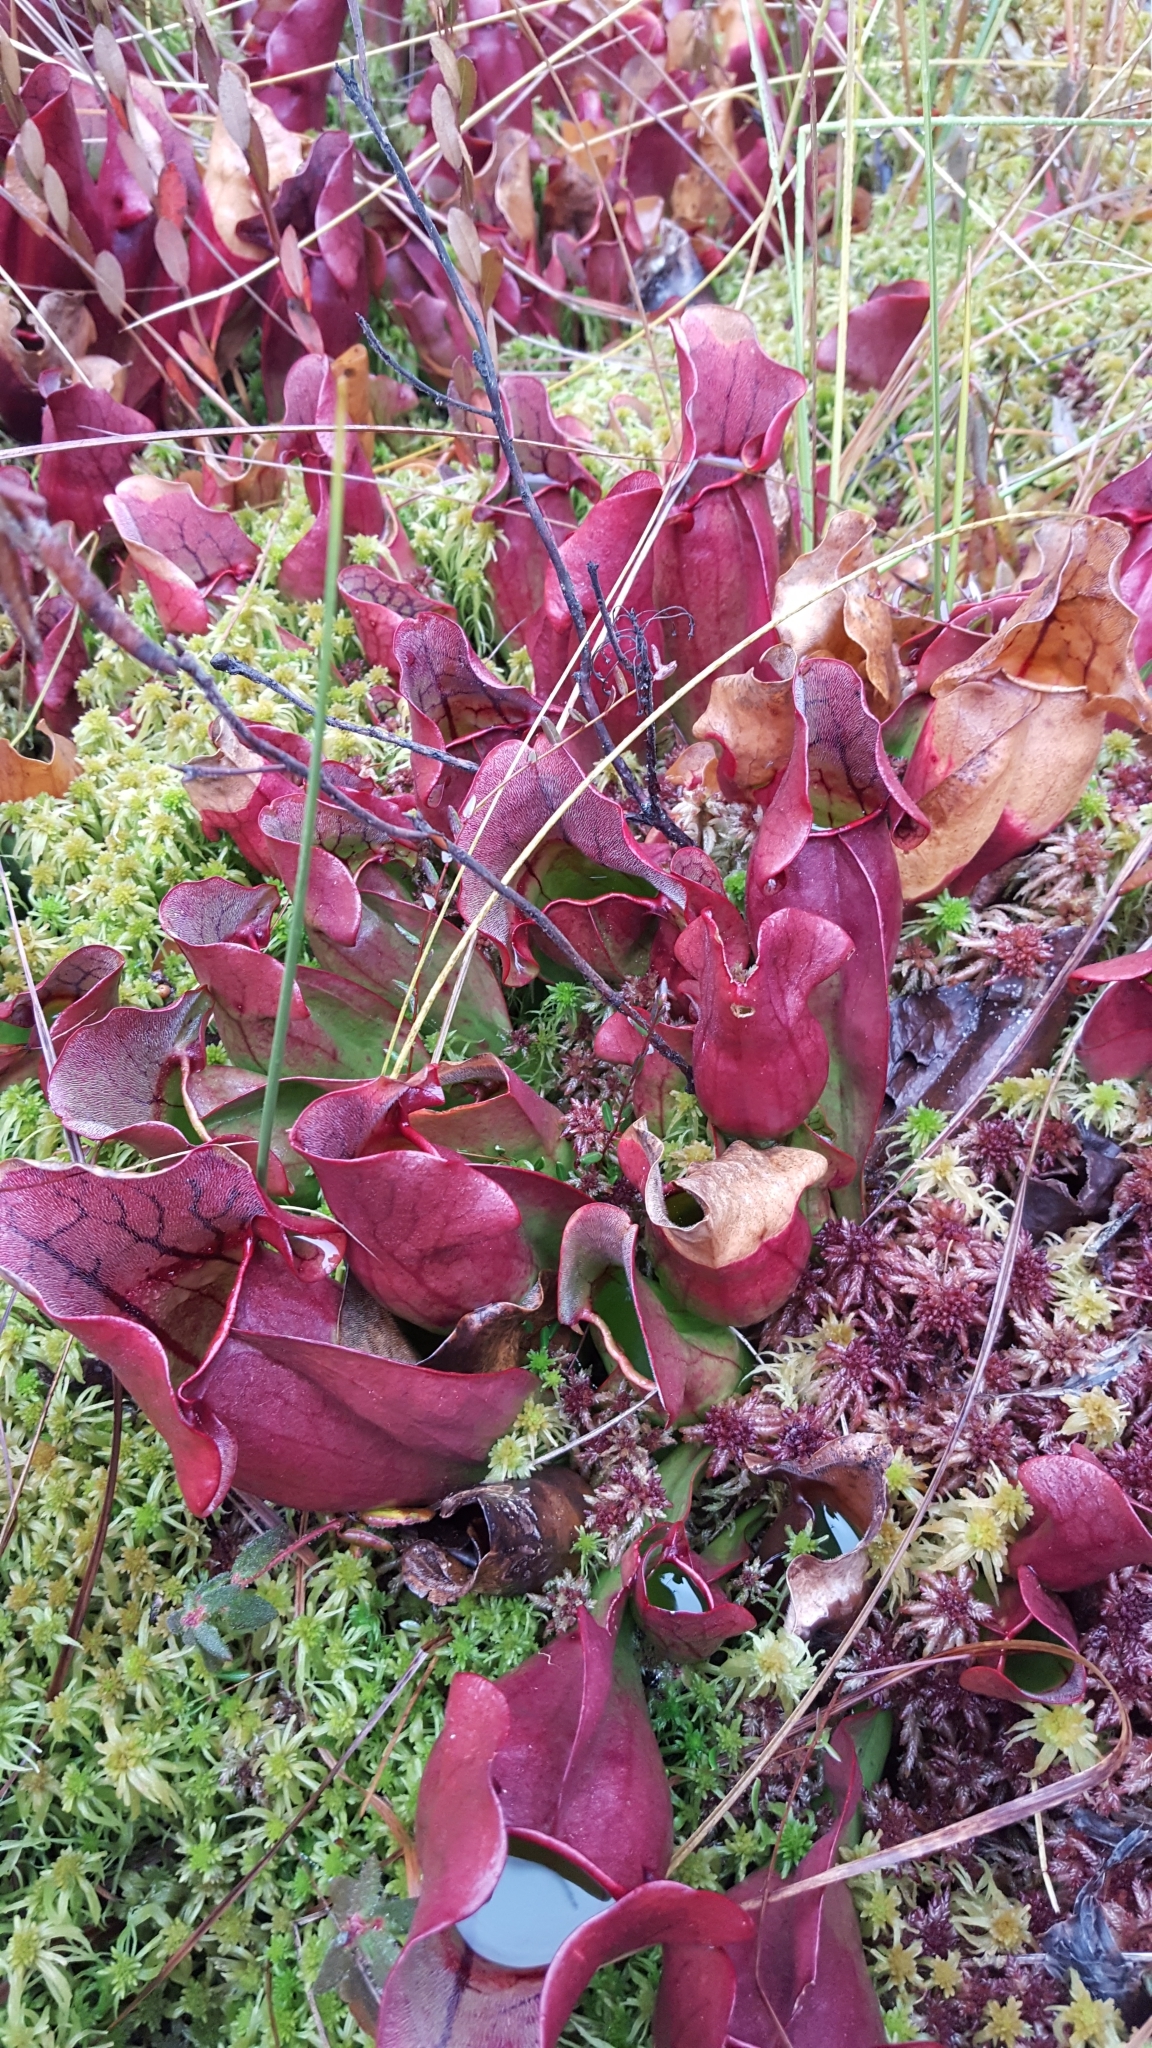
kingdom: Plantae
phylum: Tracheophyta
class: Magnoliopsida
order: Ericales
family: Sarraceniaceae
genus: Sarracenia
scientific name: Sarracenia purpurea
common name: Pitcherplant
